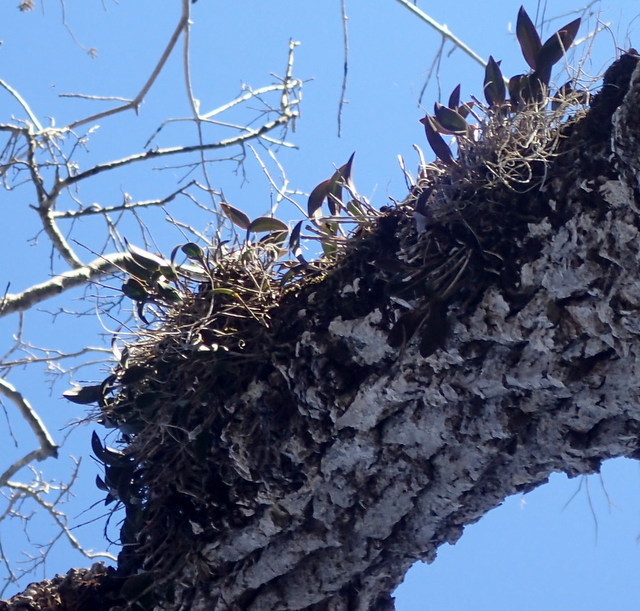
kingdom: Plantae
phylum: Tracheophyta
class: Liliopsida
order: Asparagales
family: Orchidaceae
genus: Epidendrum
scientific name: Epidendrum conopseum
